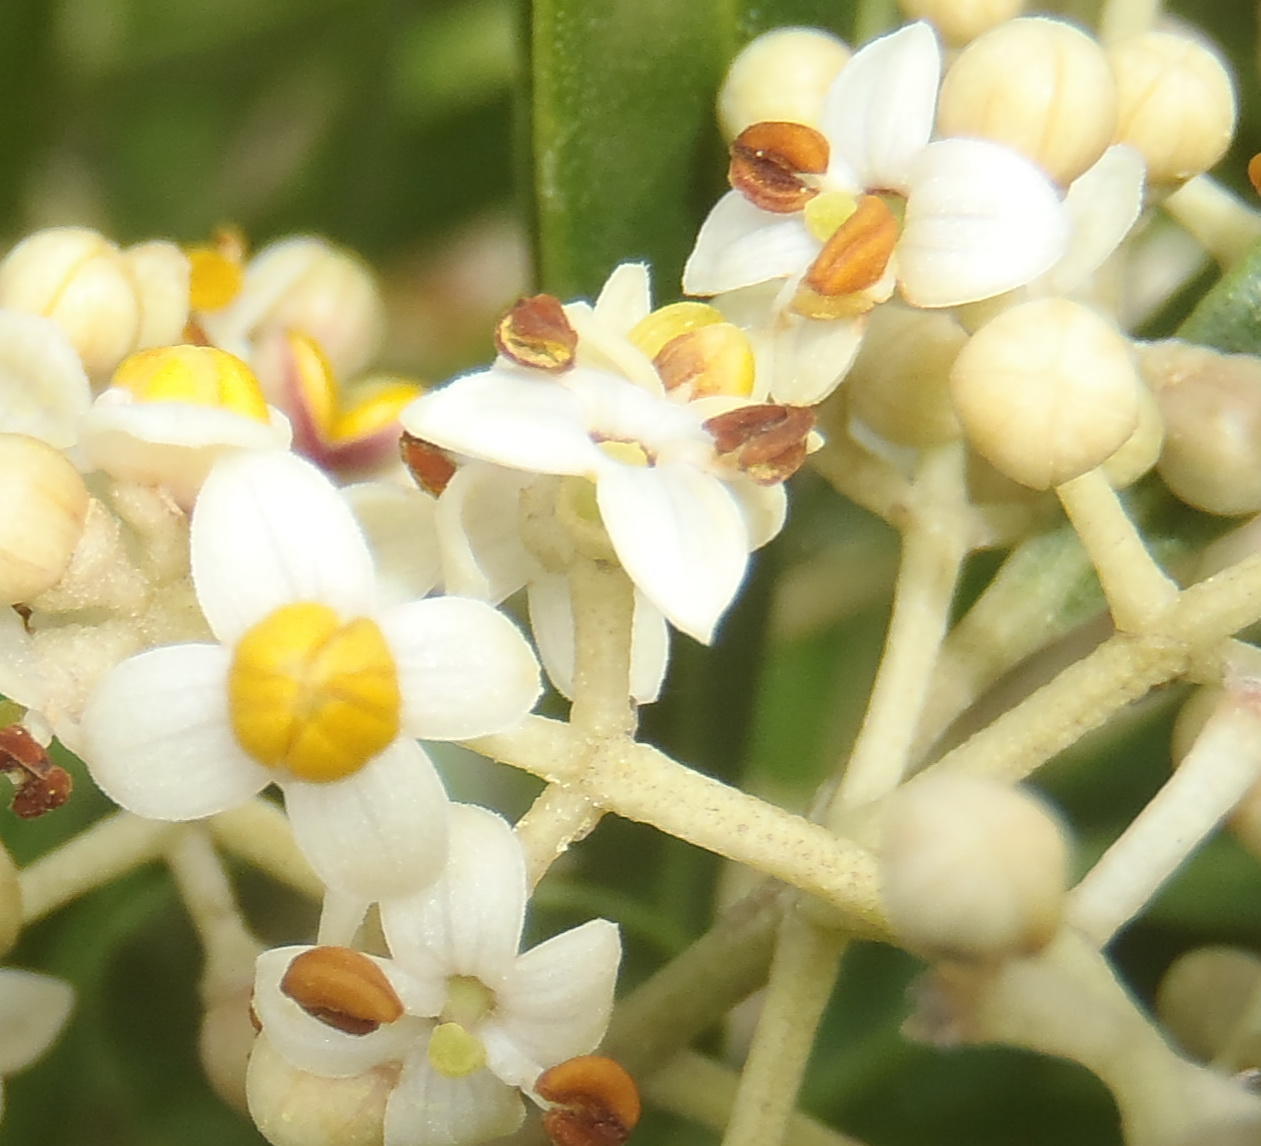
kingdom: Plantae
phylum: Tracheophyta
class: Magnoliopsida
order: Lamiales
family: Oleaceae
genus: Olea
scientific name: Olea exasperata
